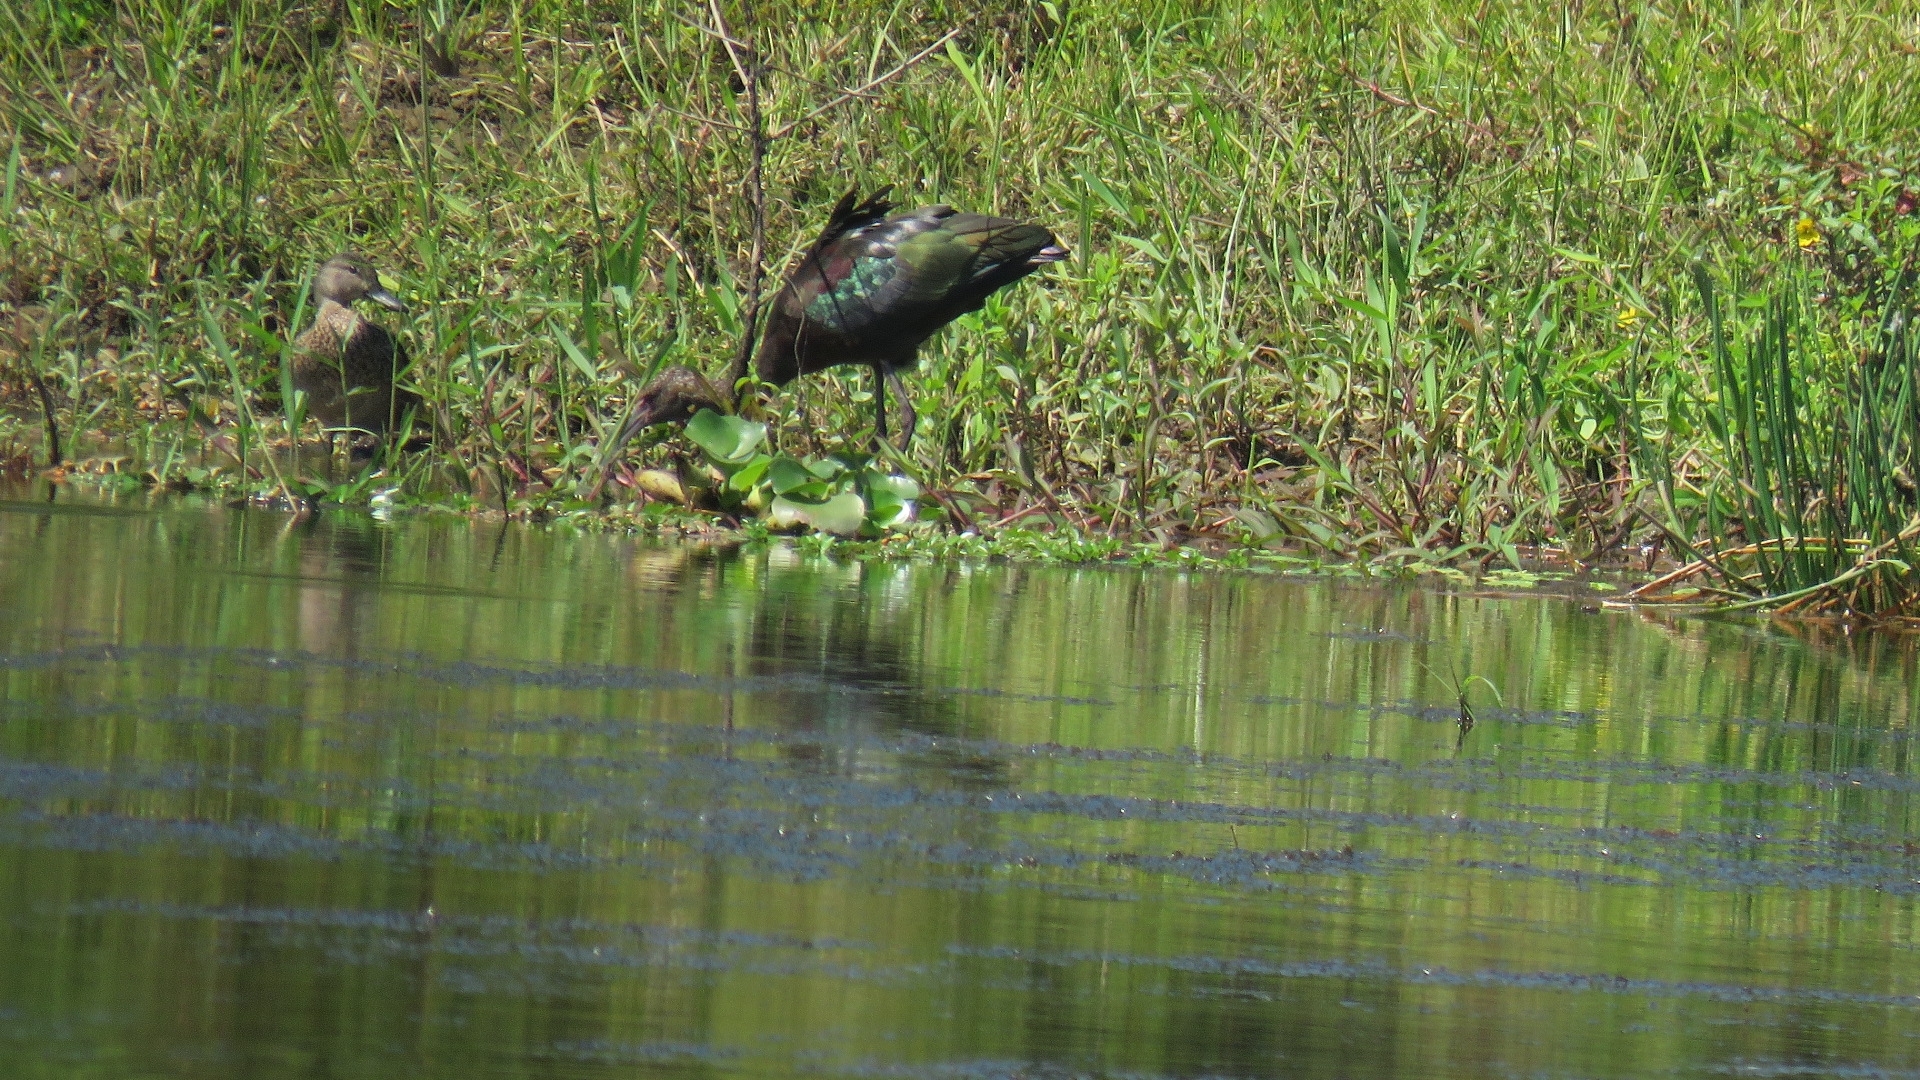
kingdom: Animalia
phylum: Chordata
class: Aves
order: Pelecaniformes
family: Threskiornithidae
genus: Plegadis
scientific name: Plegadis chihi
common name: White-faced ibis
